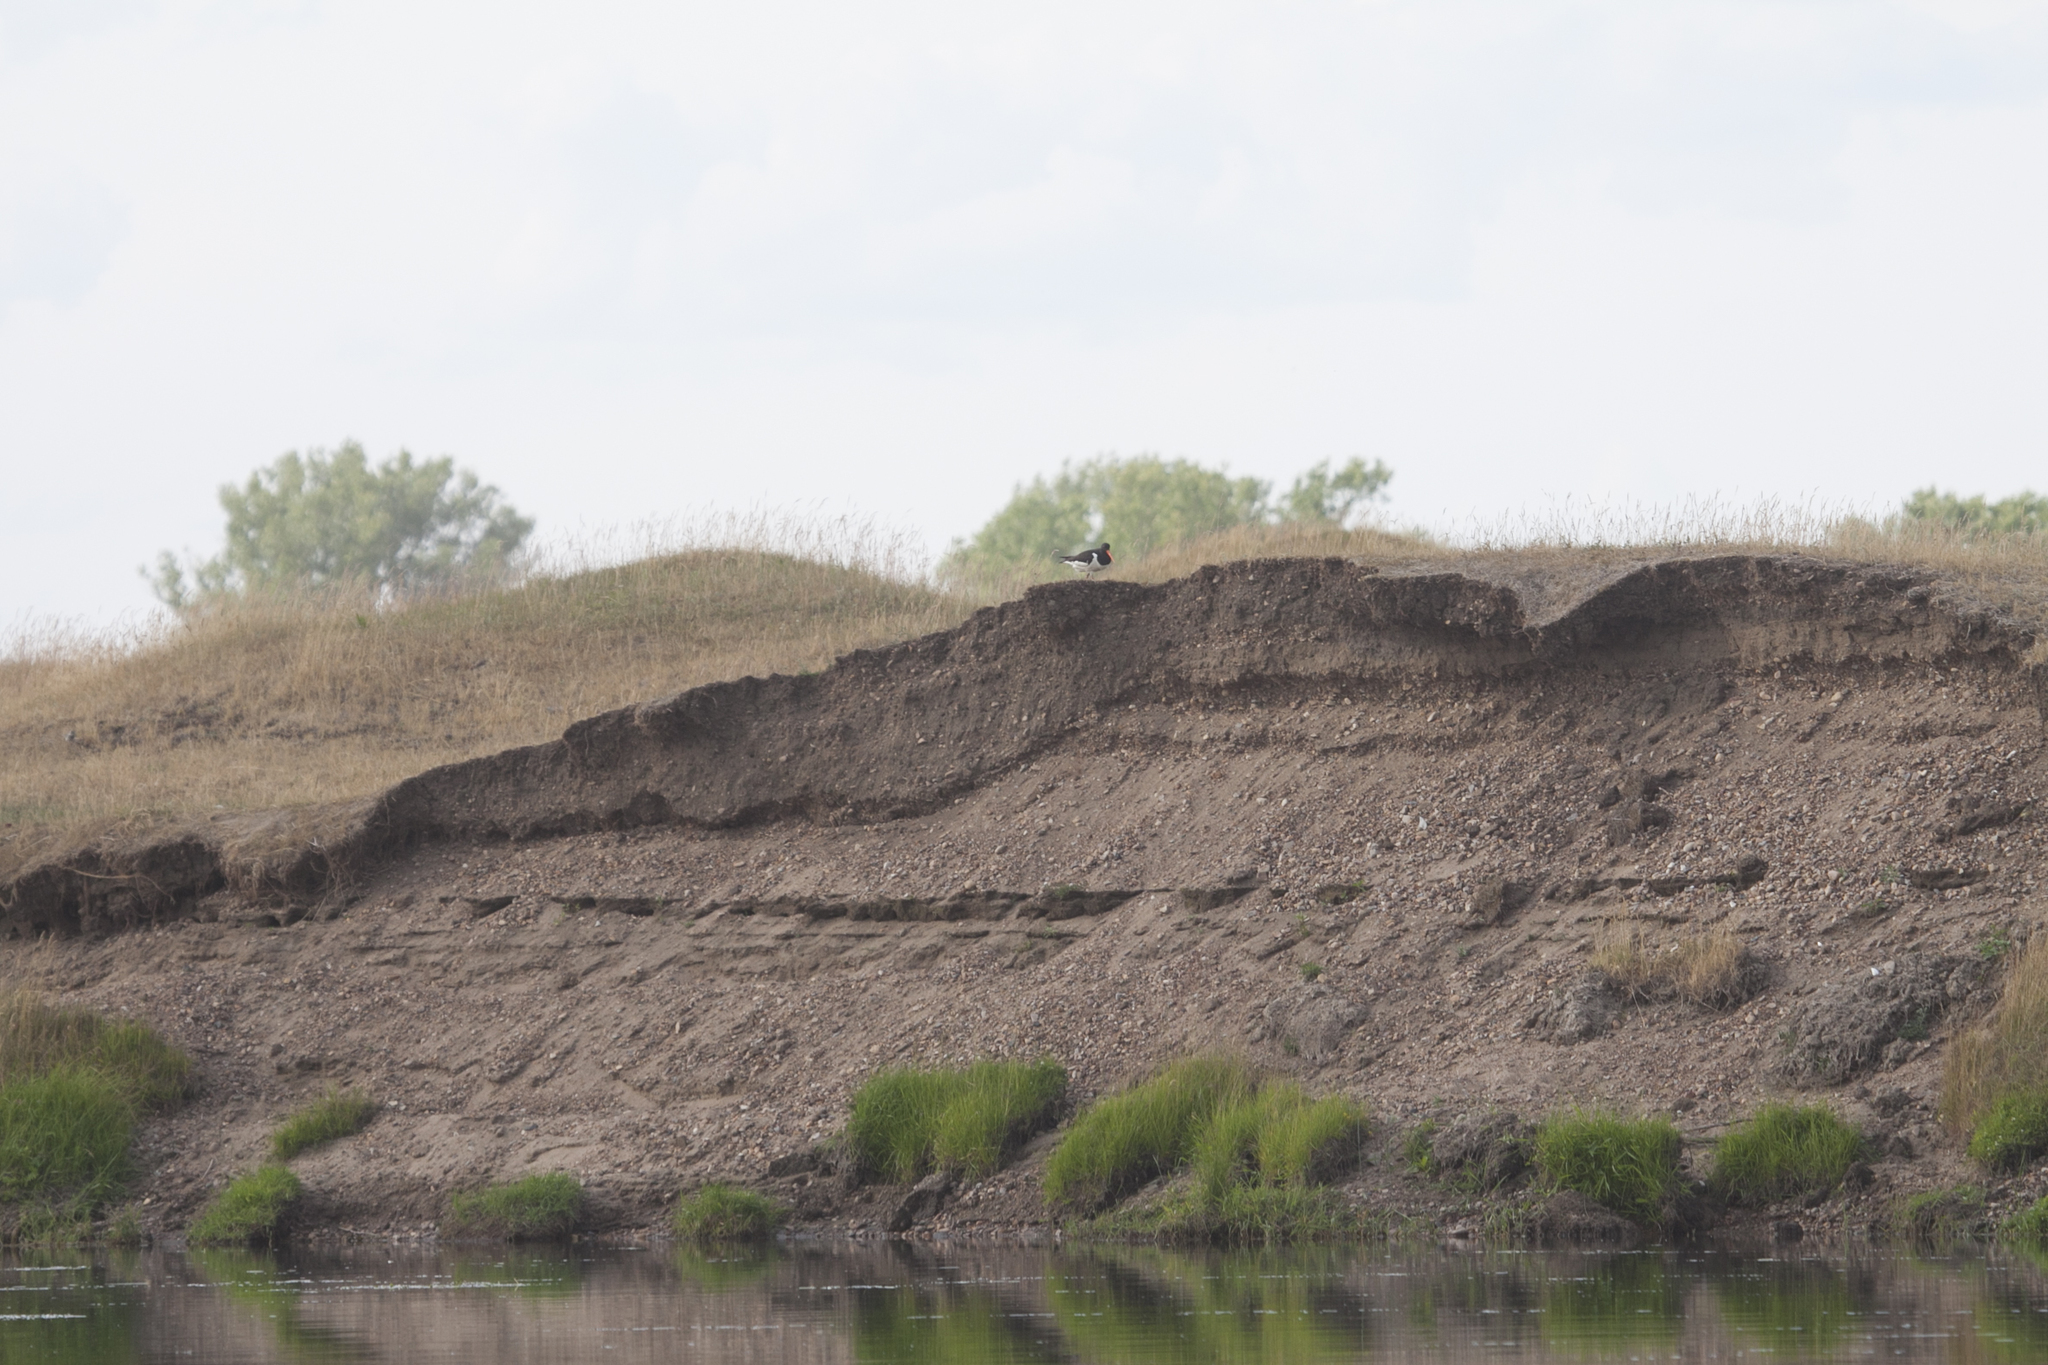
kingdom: Animalia
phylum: Chordata
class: Aves
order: Charadriiformes
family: Haematopodidae
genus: Haematopus
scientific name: Haematopus ostralegus
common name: Eurasian oystercatcher
